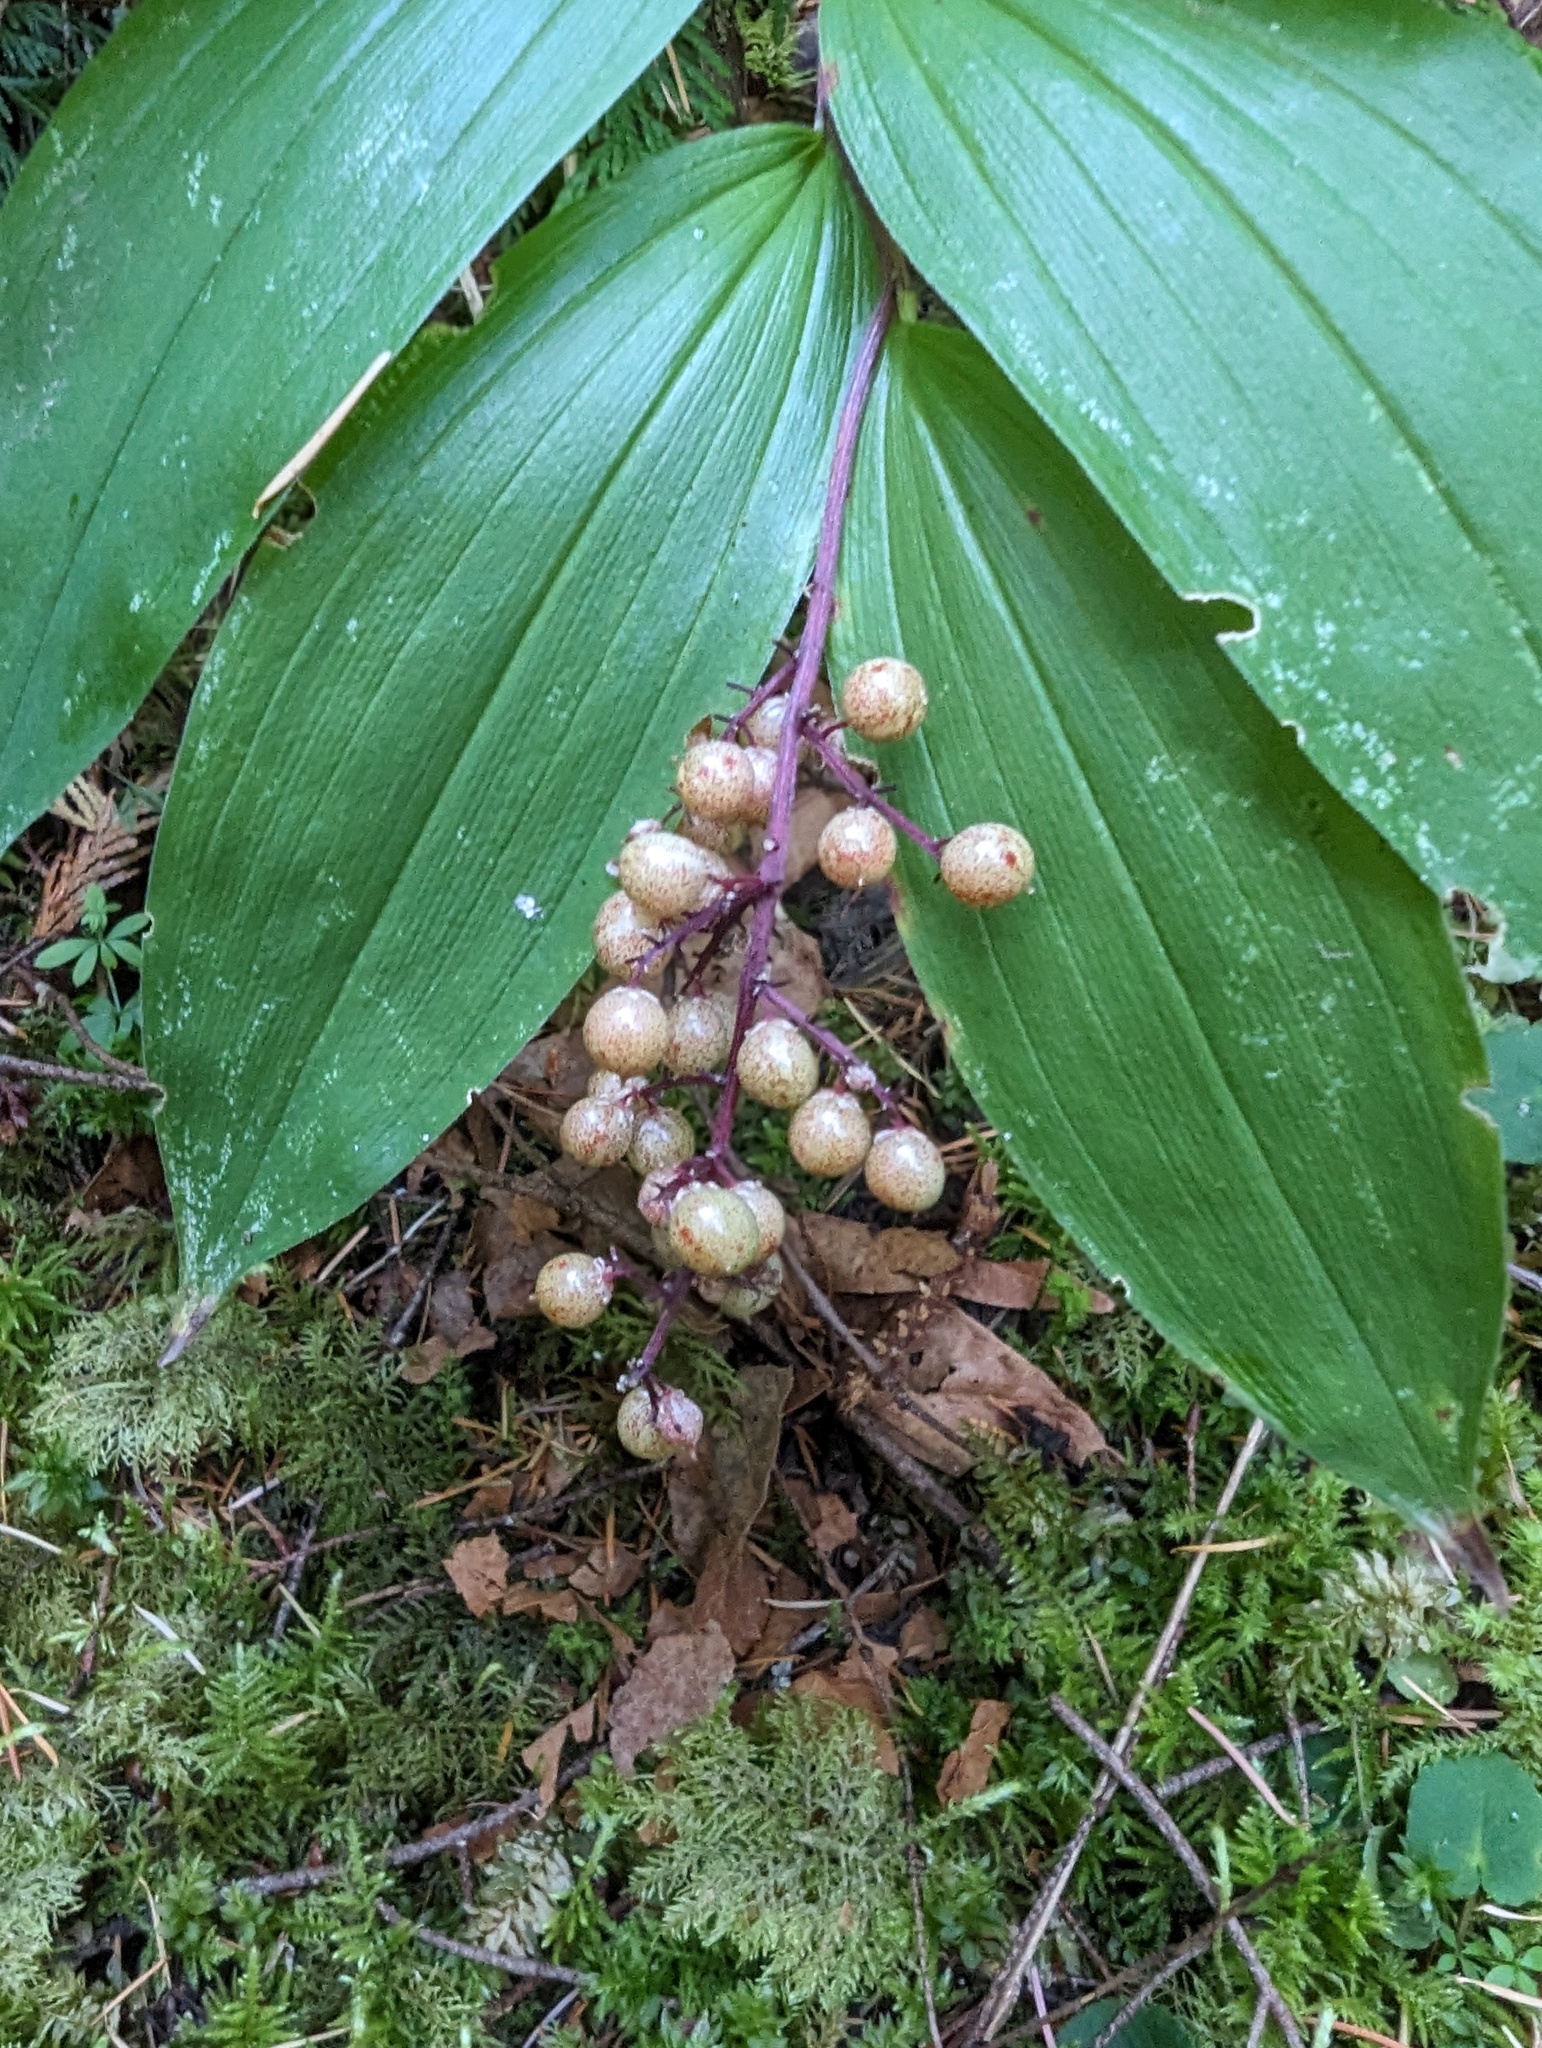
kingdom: Plantae
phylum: Tracheophyta
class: Liliopsida
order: Asparagales
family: Asparagaceae
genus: Maianthemum
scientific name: Maianthemum racemosum
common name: False spikenard
